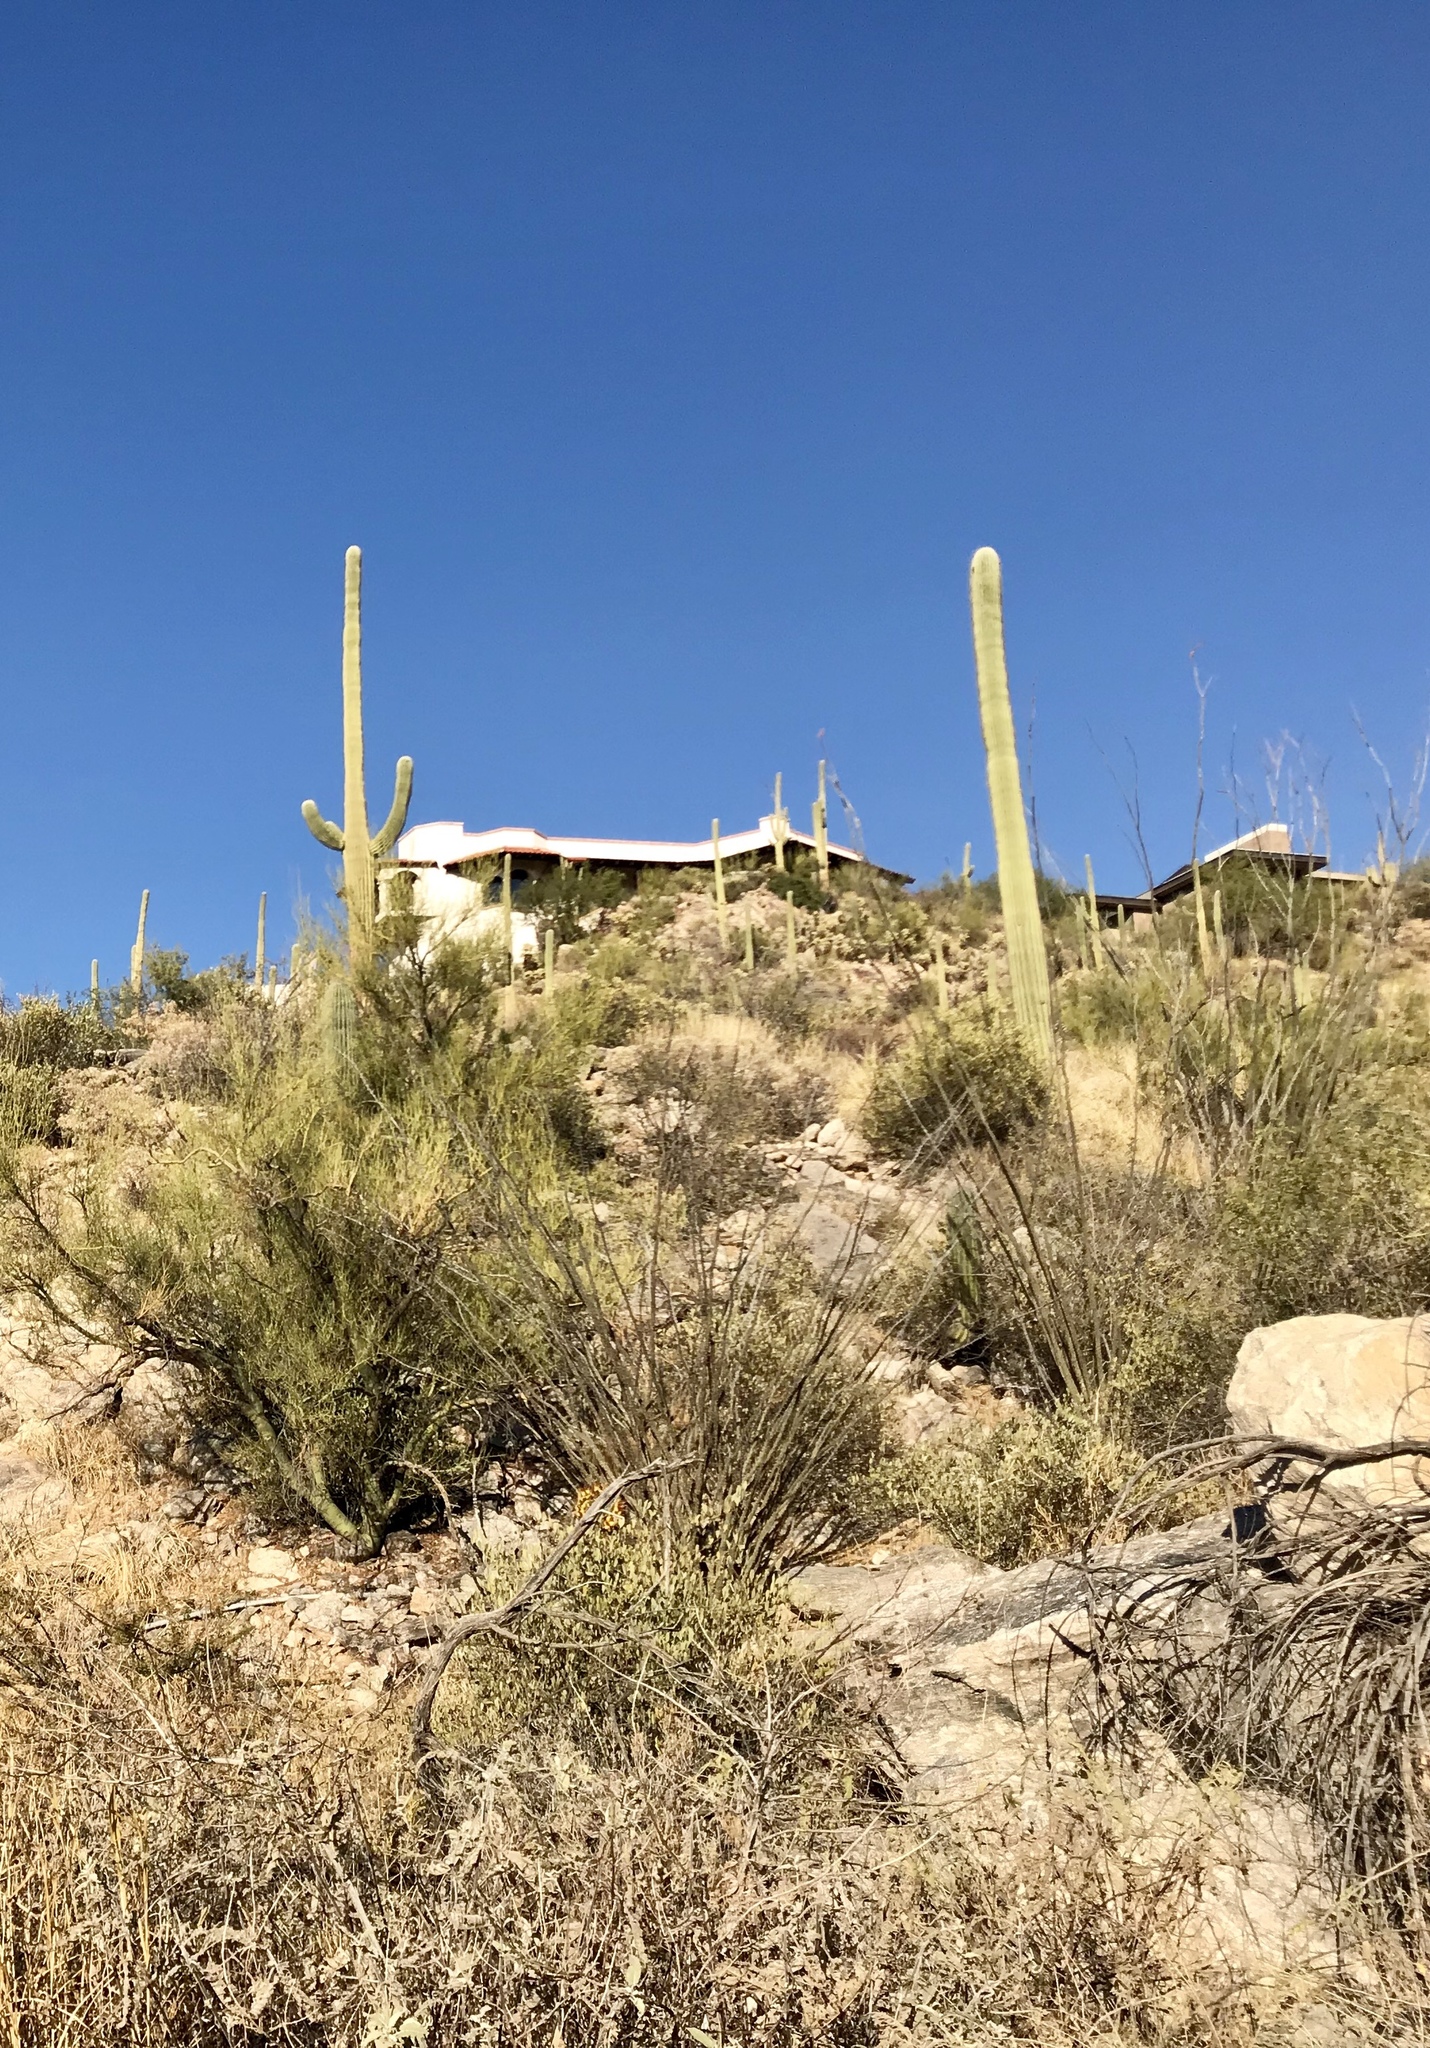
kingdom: Plantae
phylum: Tracheophyta
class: Magnoliopsida
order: Caryophyllales
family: Cactaceae
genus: Carnegiea
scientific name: Carnegiea gigantea
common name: Saguaro
